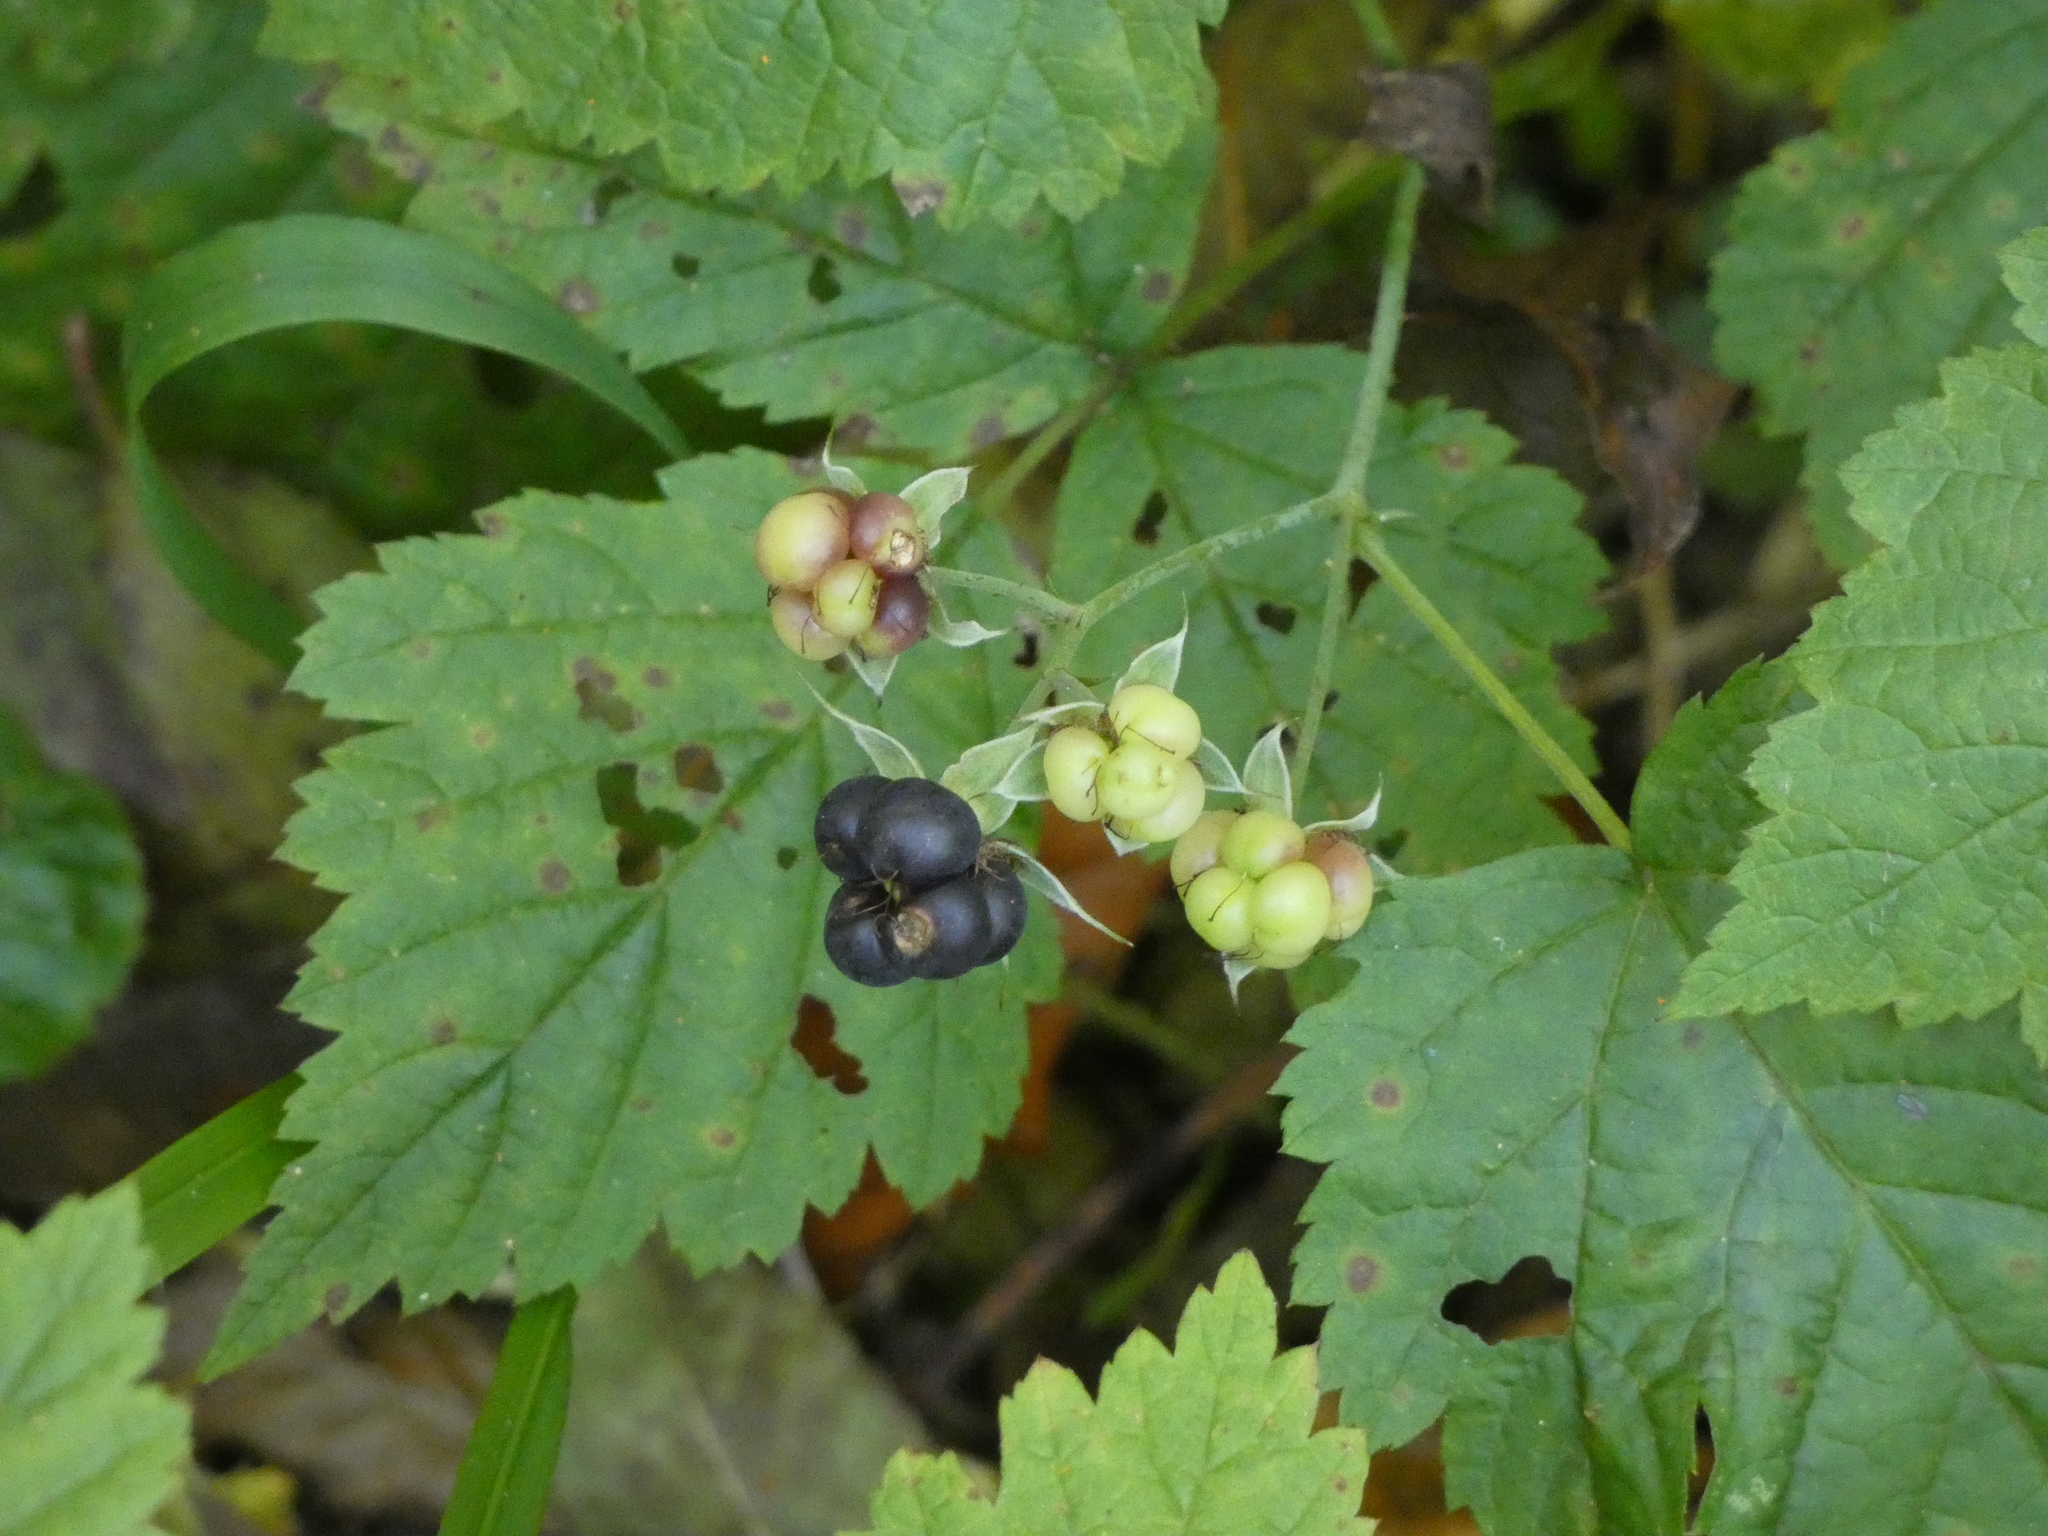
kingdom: Plantae
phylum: Tracheophyta
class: Magnoliopsida
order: Rosales
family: Rosaceae
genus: Rubus
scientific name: Rubus caesius
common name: Dewberry
